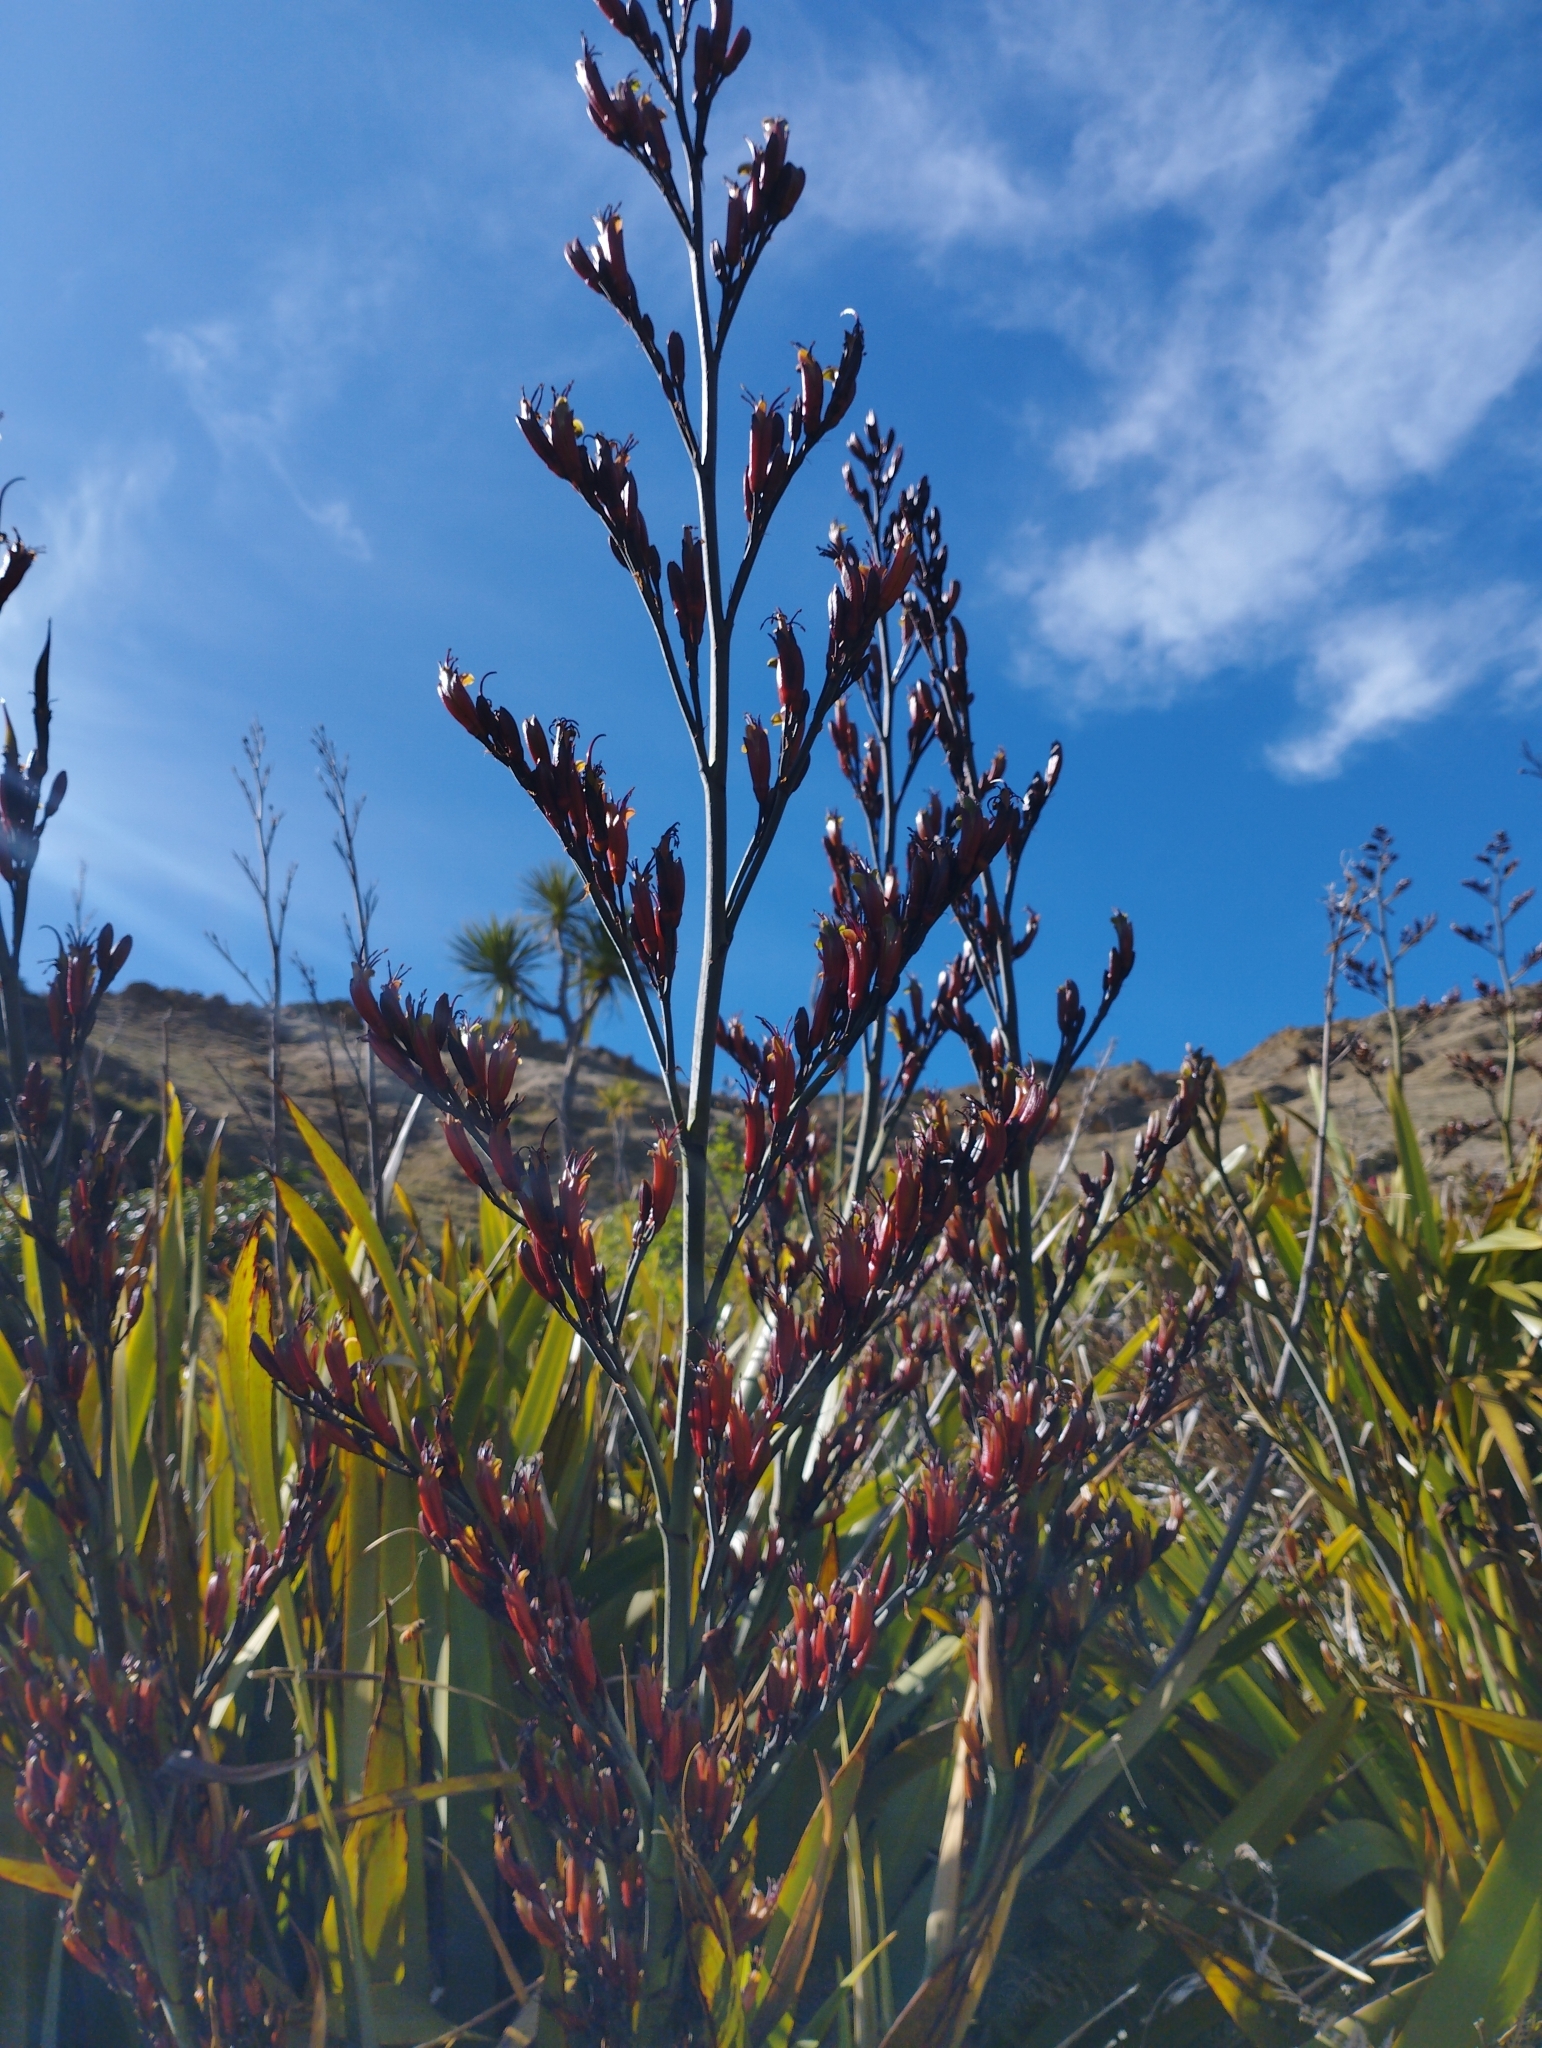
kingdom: Plantae
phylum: Tracheophyta
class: Liliopsida
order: Asparagales
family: Asphodelaceae
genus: Phormium
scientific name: Phormium tenax
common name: New zealand flax
